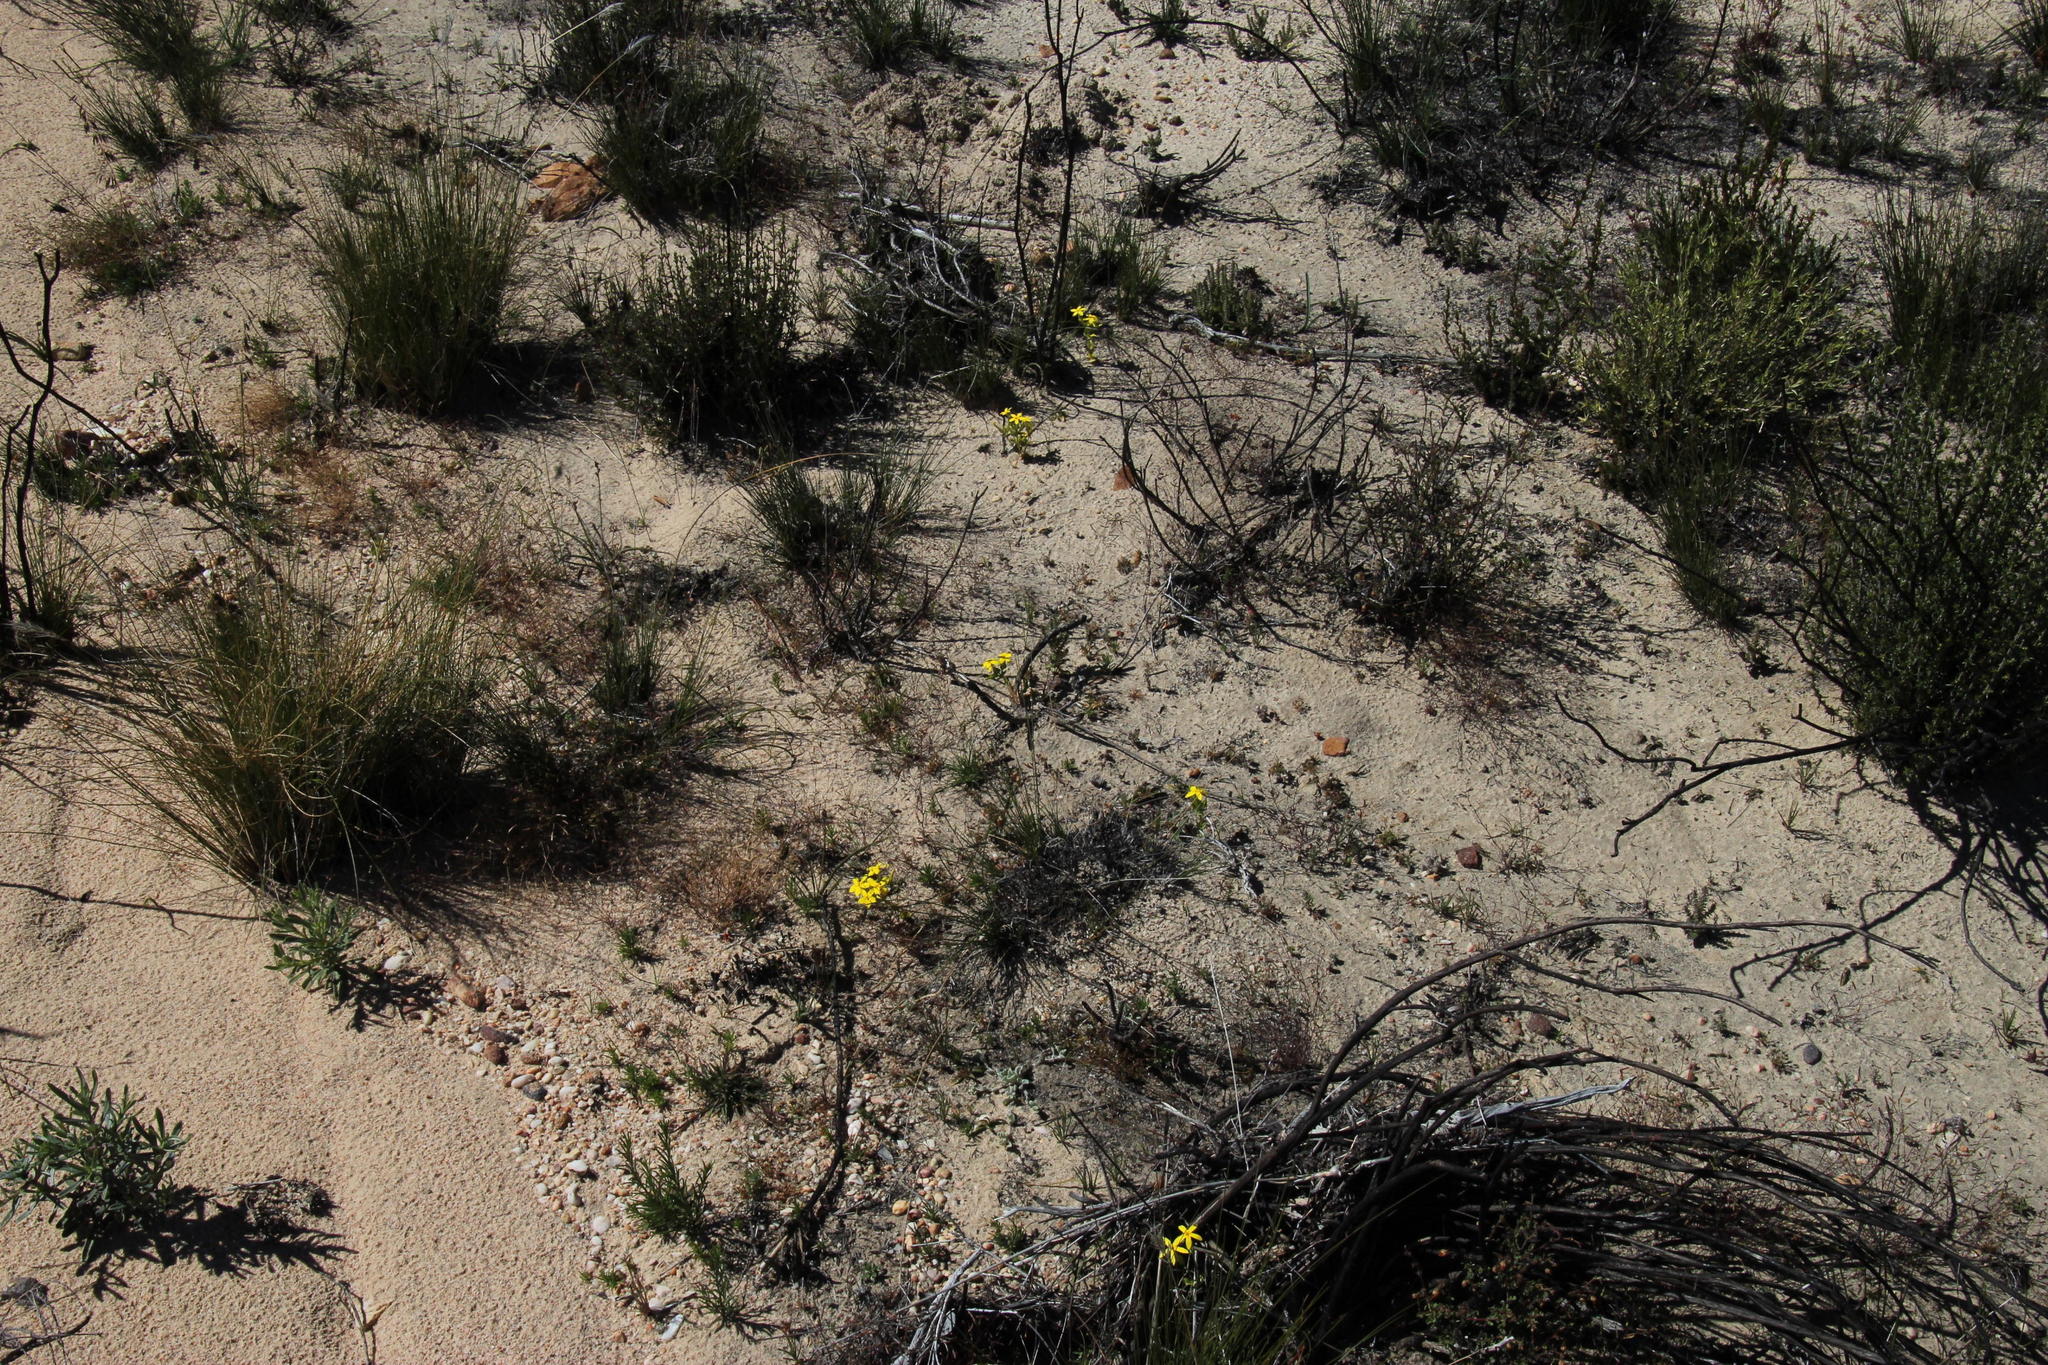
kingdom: Plantae
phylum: Tracheophyta
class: Magnoliopsida
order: Gentianales
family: Gentianaceae
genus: Sebaea
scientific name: Sebaea exacoides
